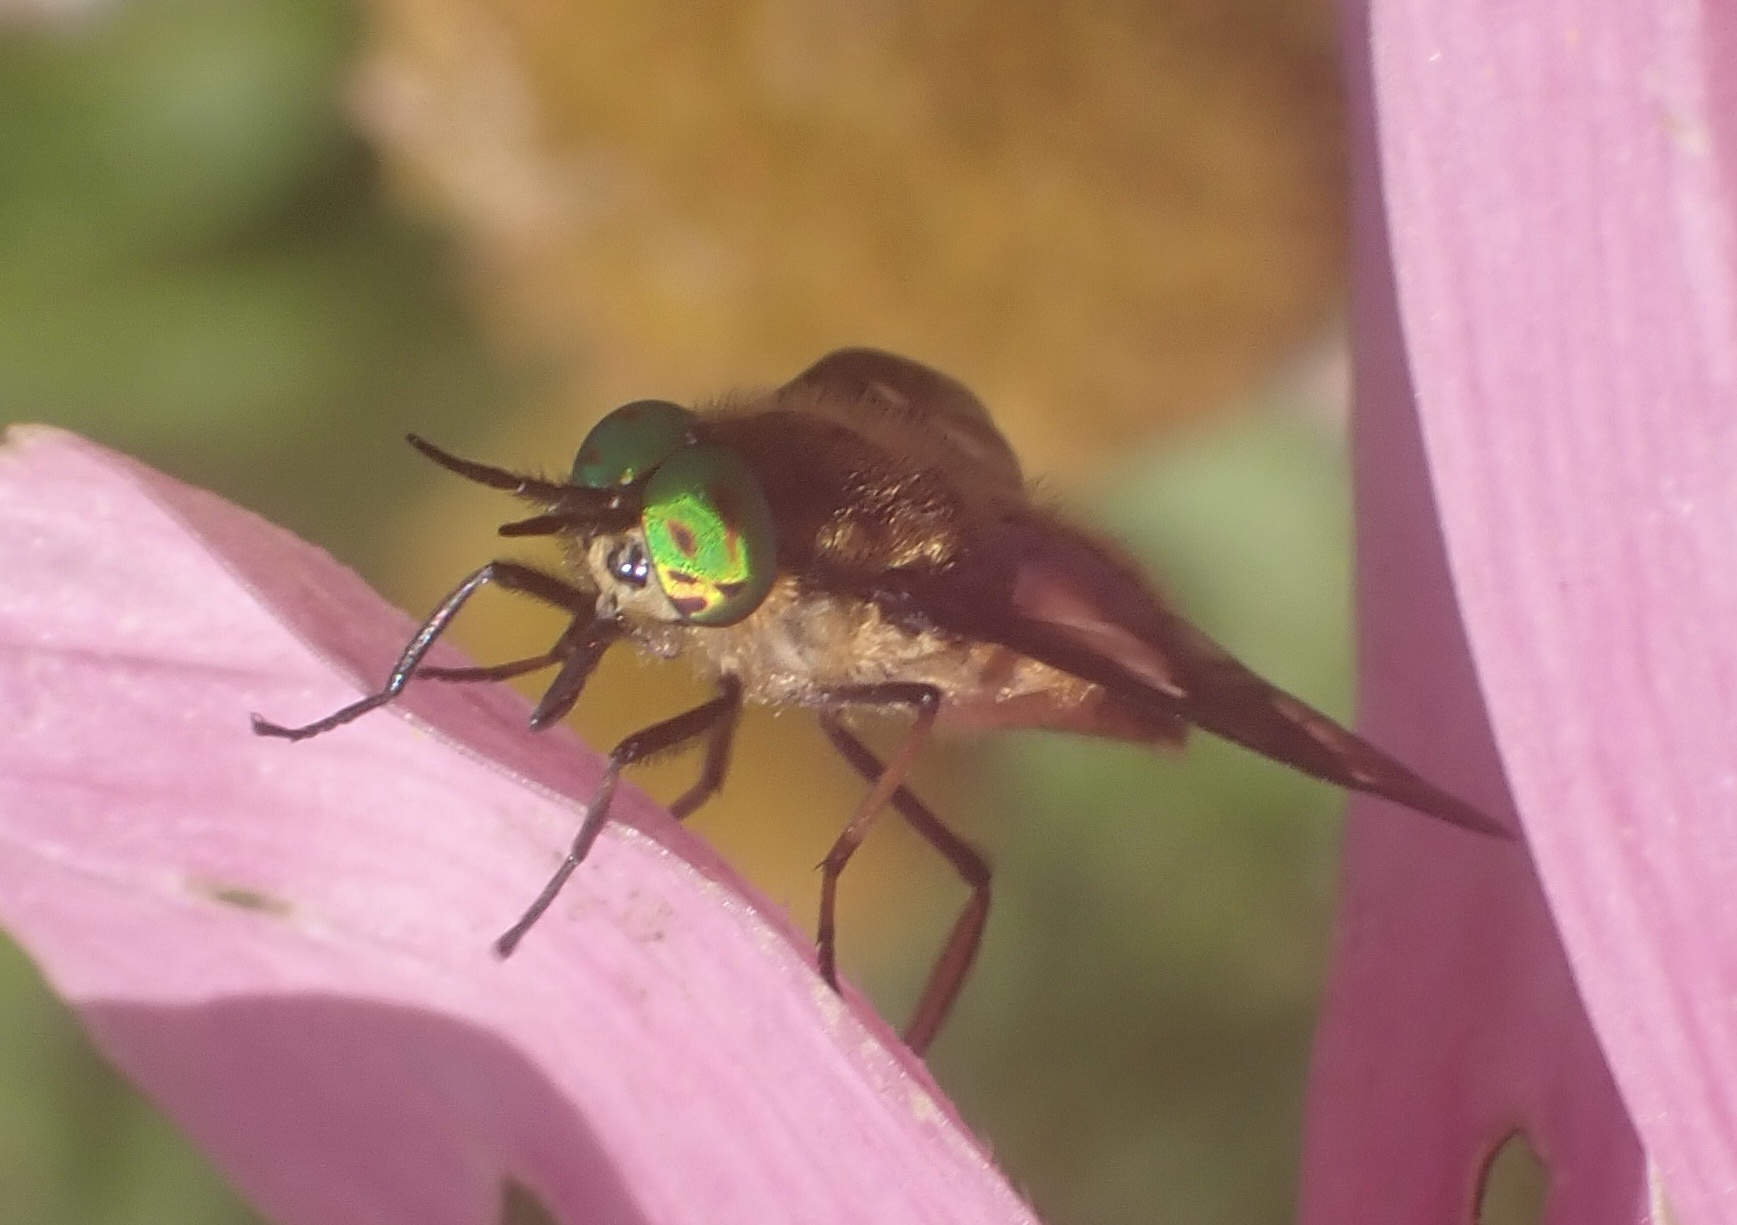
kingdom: Animalia
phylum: Arthropoda
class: Insecta
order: Diptera
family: Tabanidae
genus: Chrysops
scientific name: Chrysops relictus
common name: Twin-lobed deerfly
